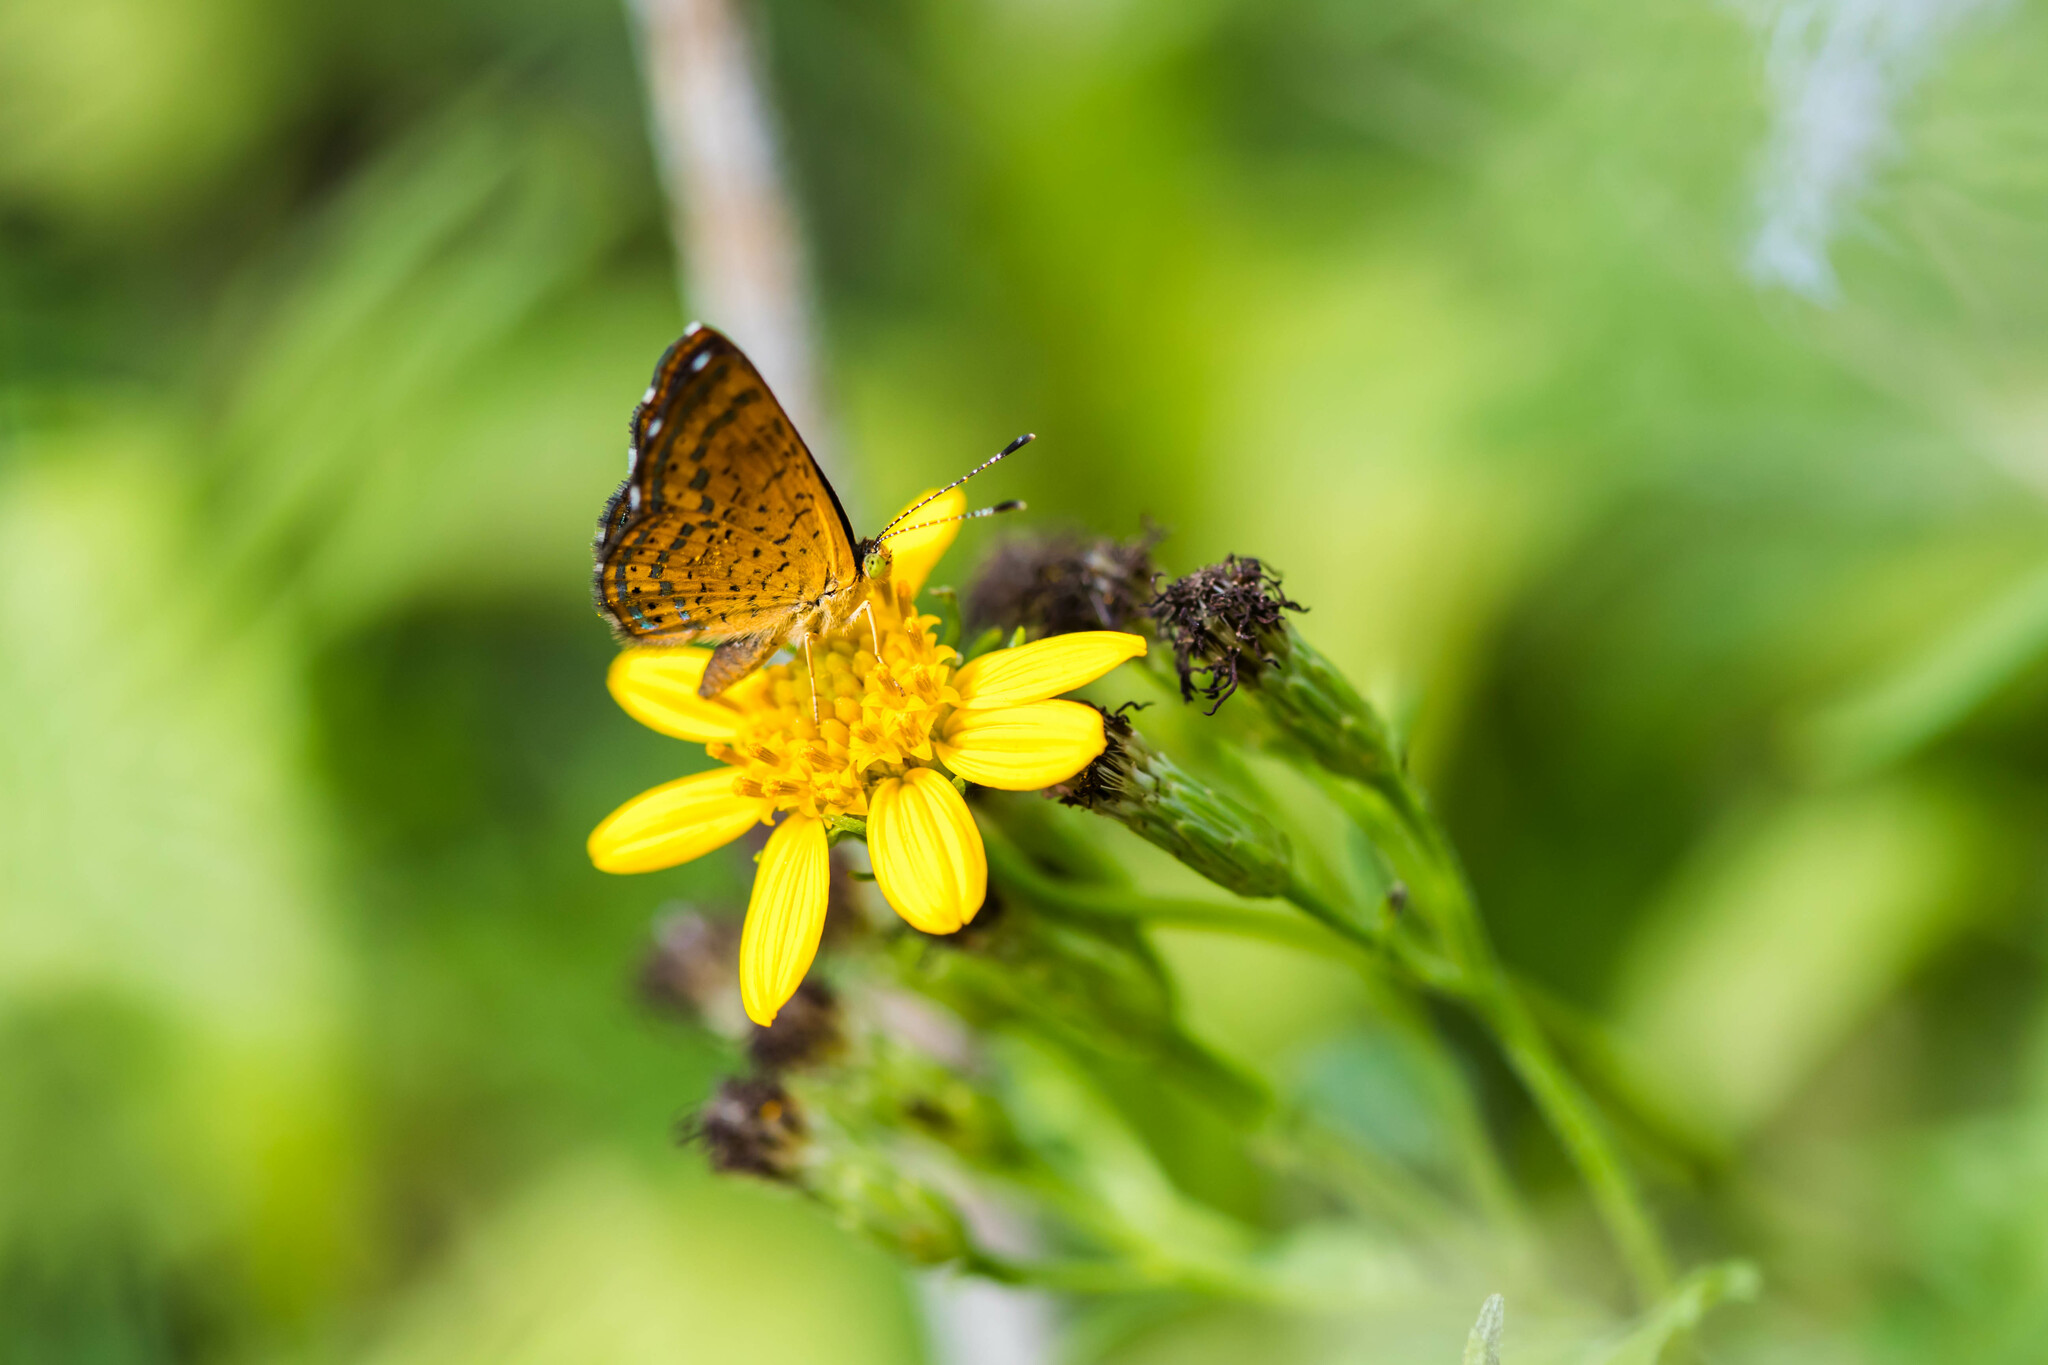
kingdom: Animalia
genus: Calephelis
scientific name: Calephelis nemesis
